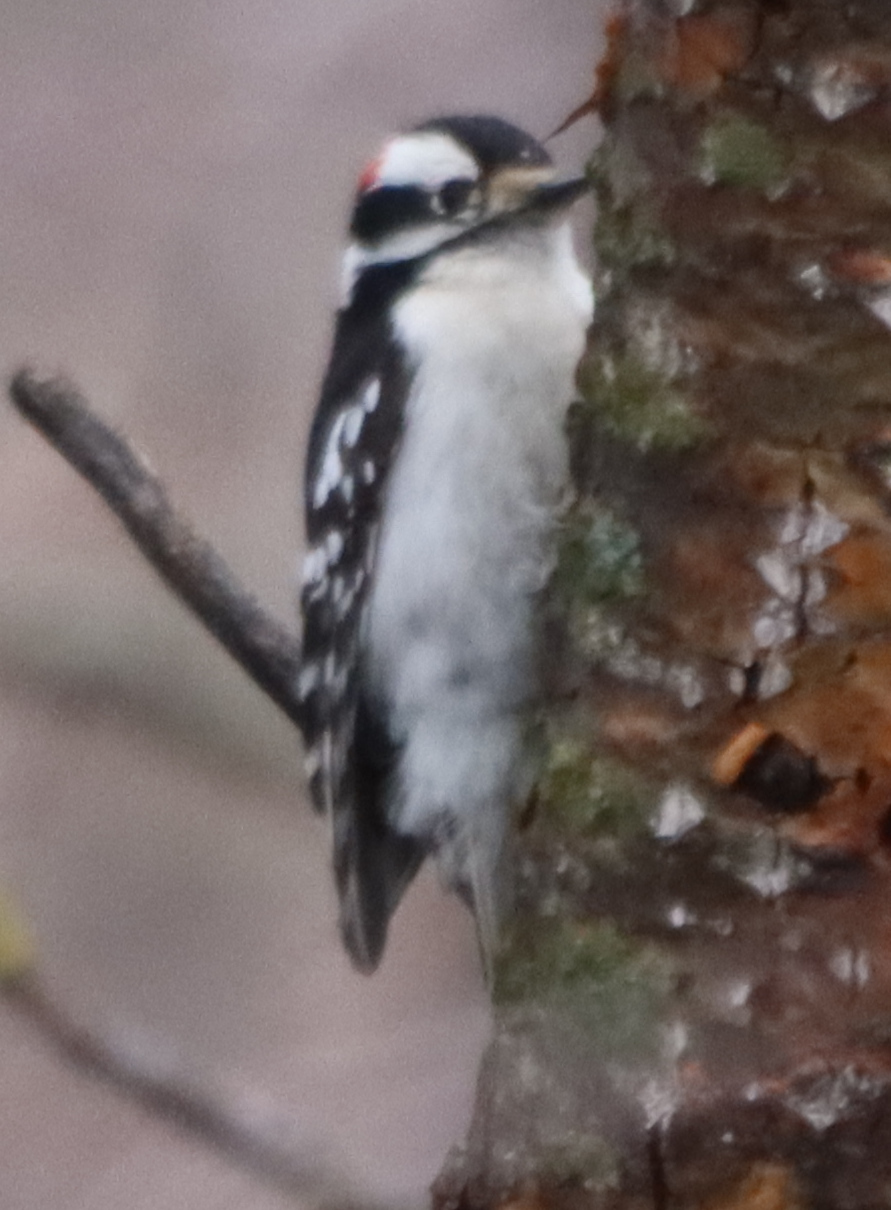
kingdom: Animalia
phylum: Chordata
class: Aves
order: Piciformes
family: Picidae
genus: Dryobates
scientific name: Dryobates pubescens
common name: Downy woodpecker
